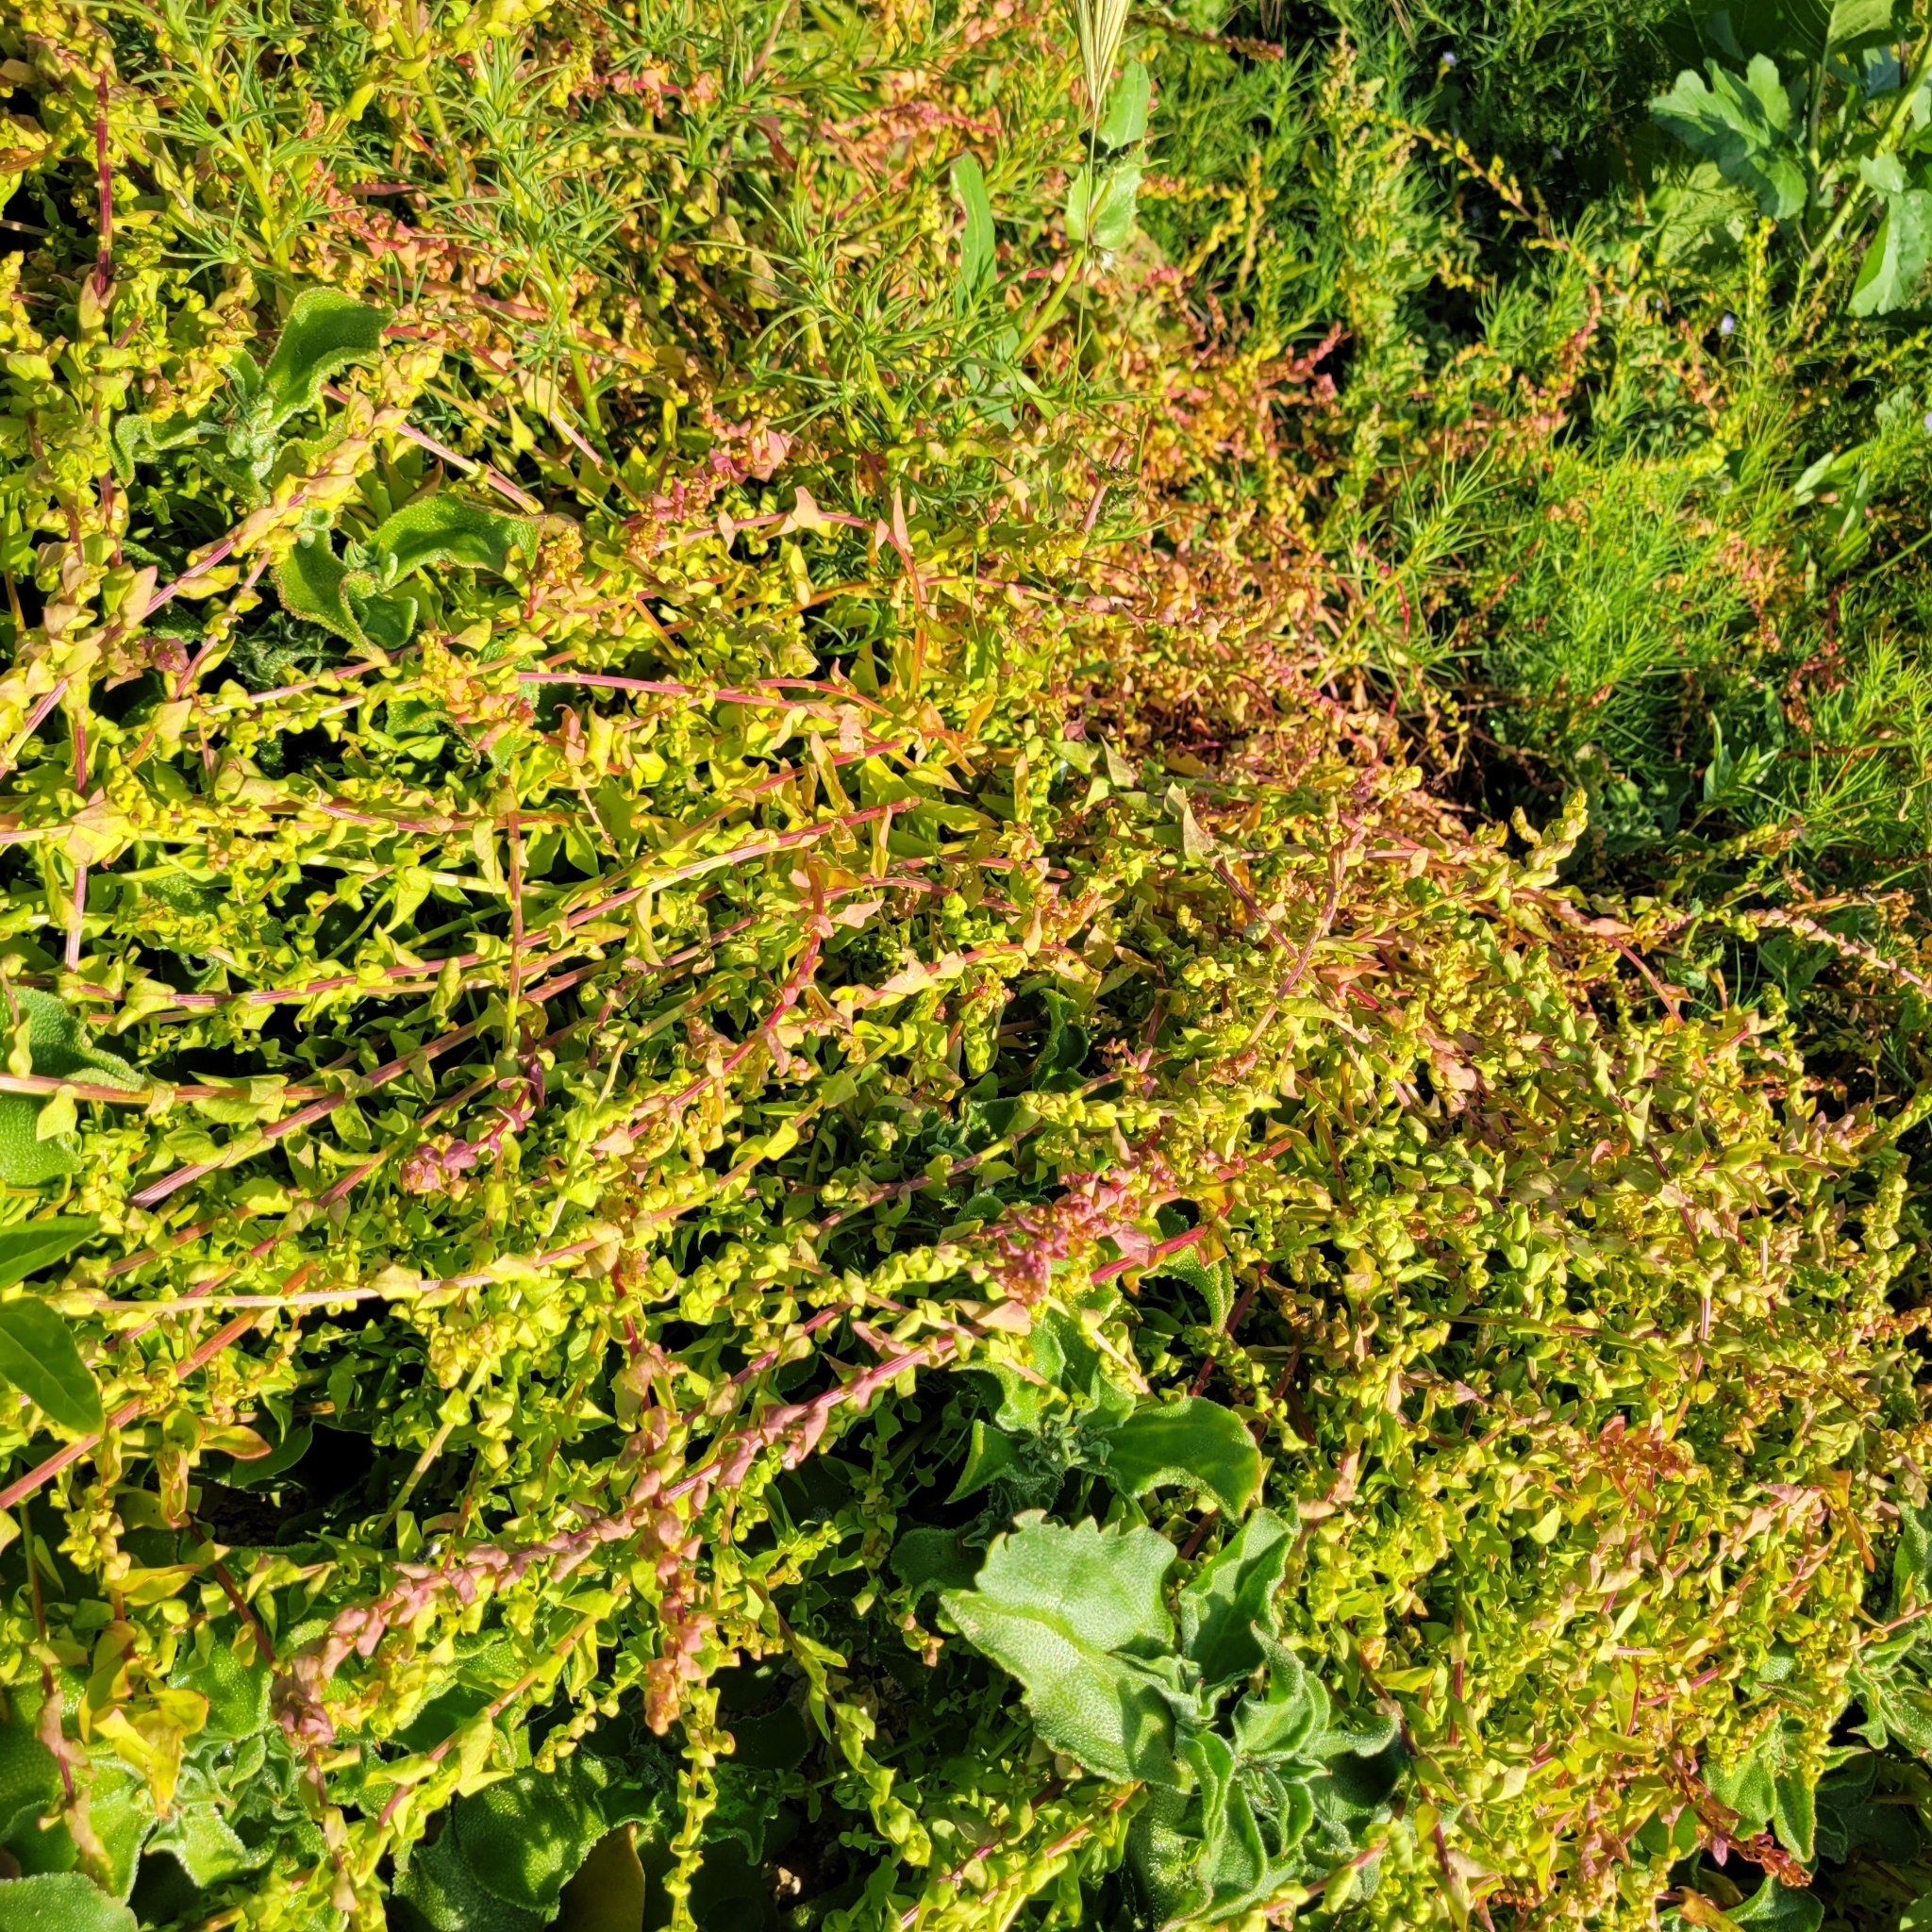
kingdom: Plantae
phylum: Tracheophyta
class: Magnoliopsida
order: Caryophyllales
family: Amaranthaceae
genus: Aphanisma
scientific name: Aphanisma blitoides
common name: Aphanisma
